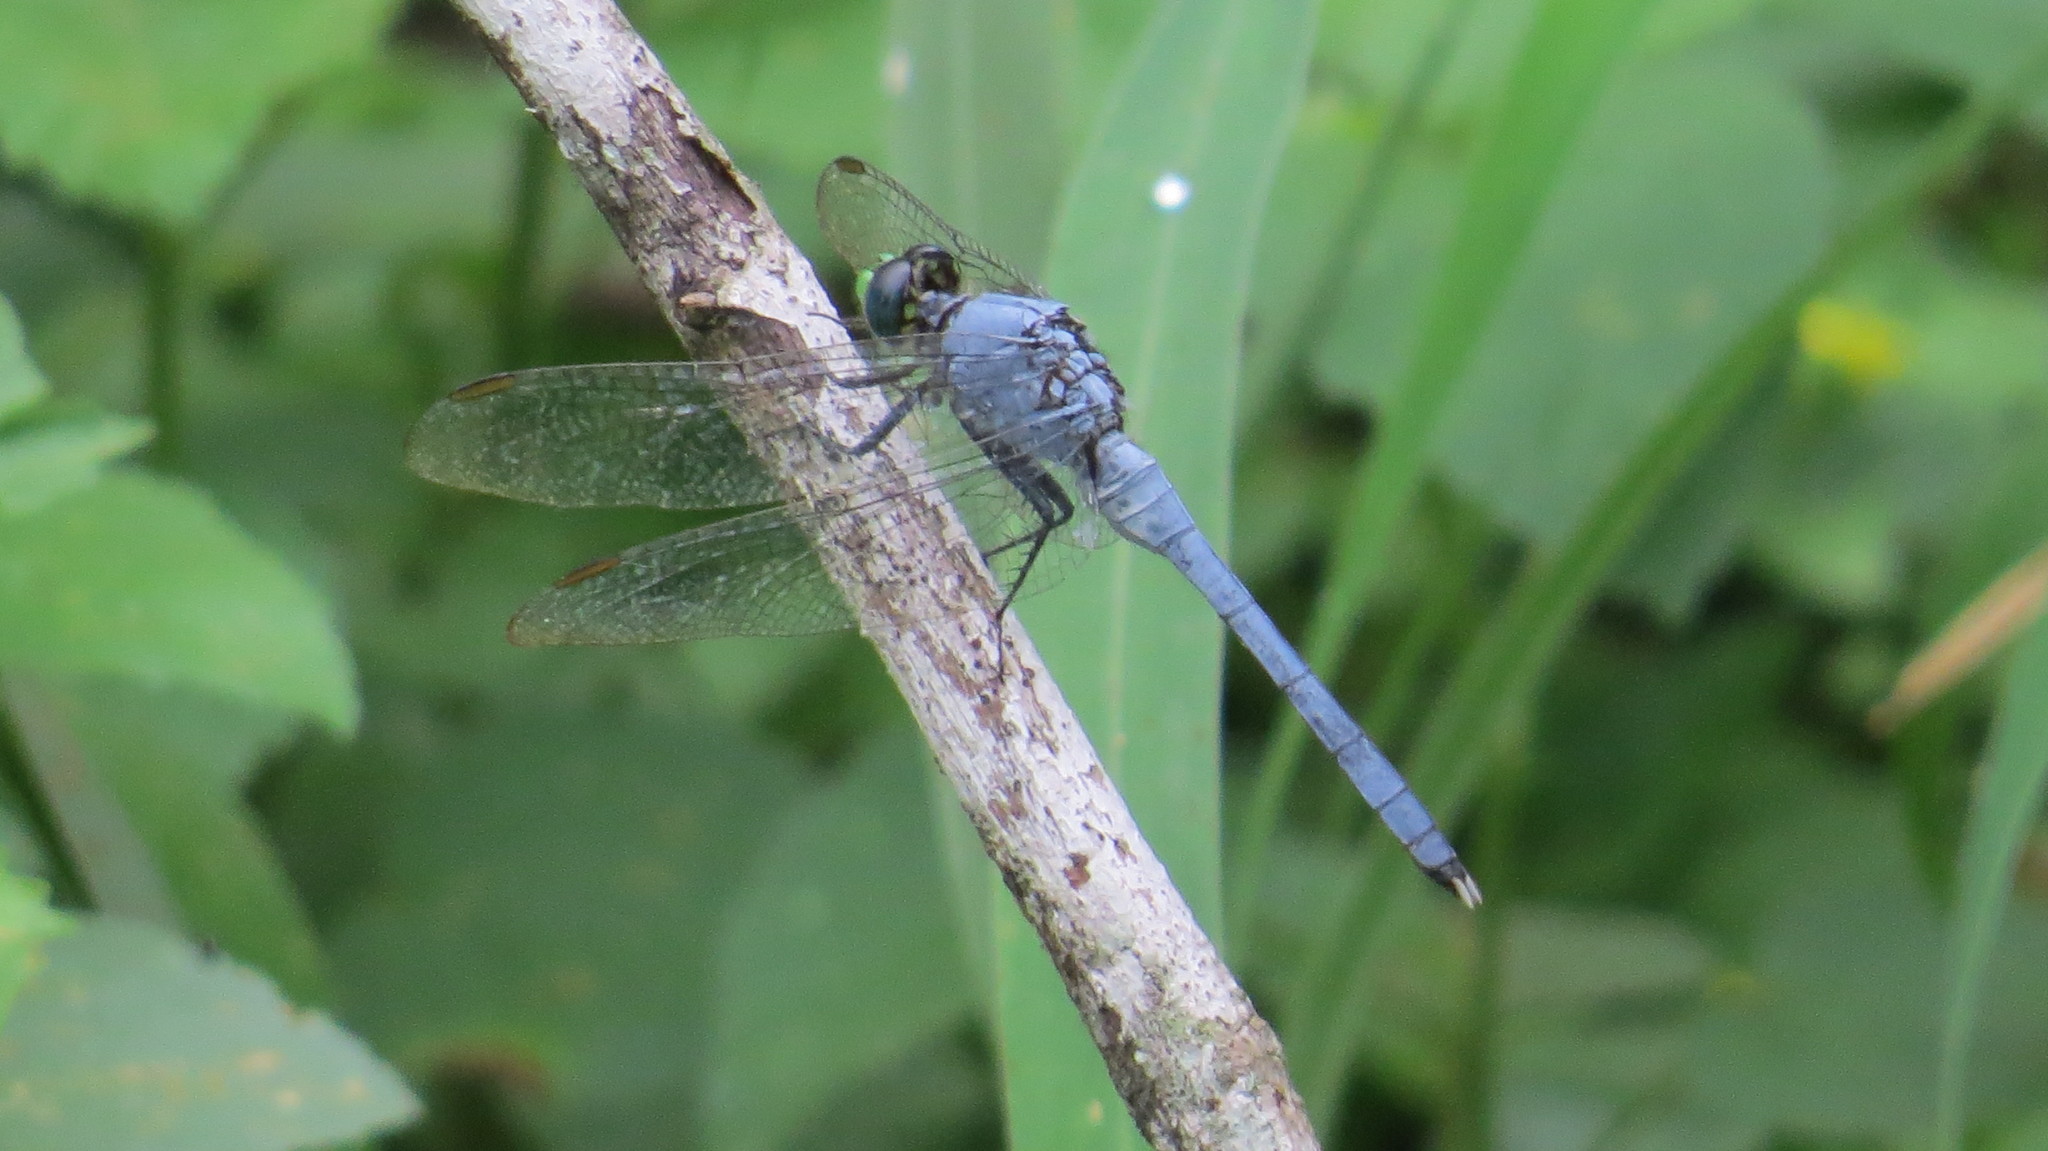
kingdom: Animalia
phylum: Arthropoda
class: Insecta
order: Odonata
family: Libellulidae
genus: Erythemis
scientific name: Erythemis simplicicollis
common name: Eastern pondhawk
